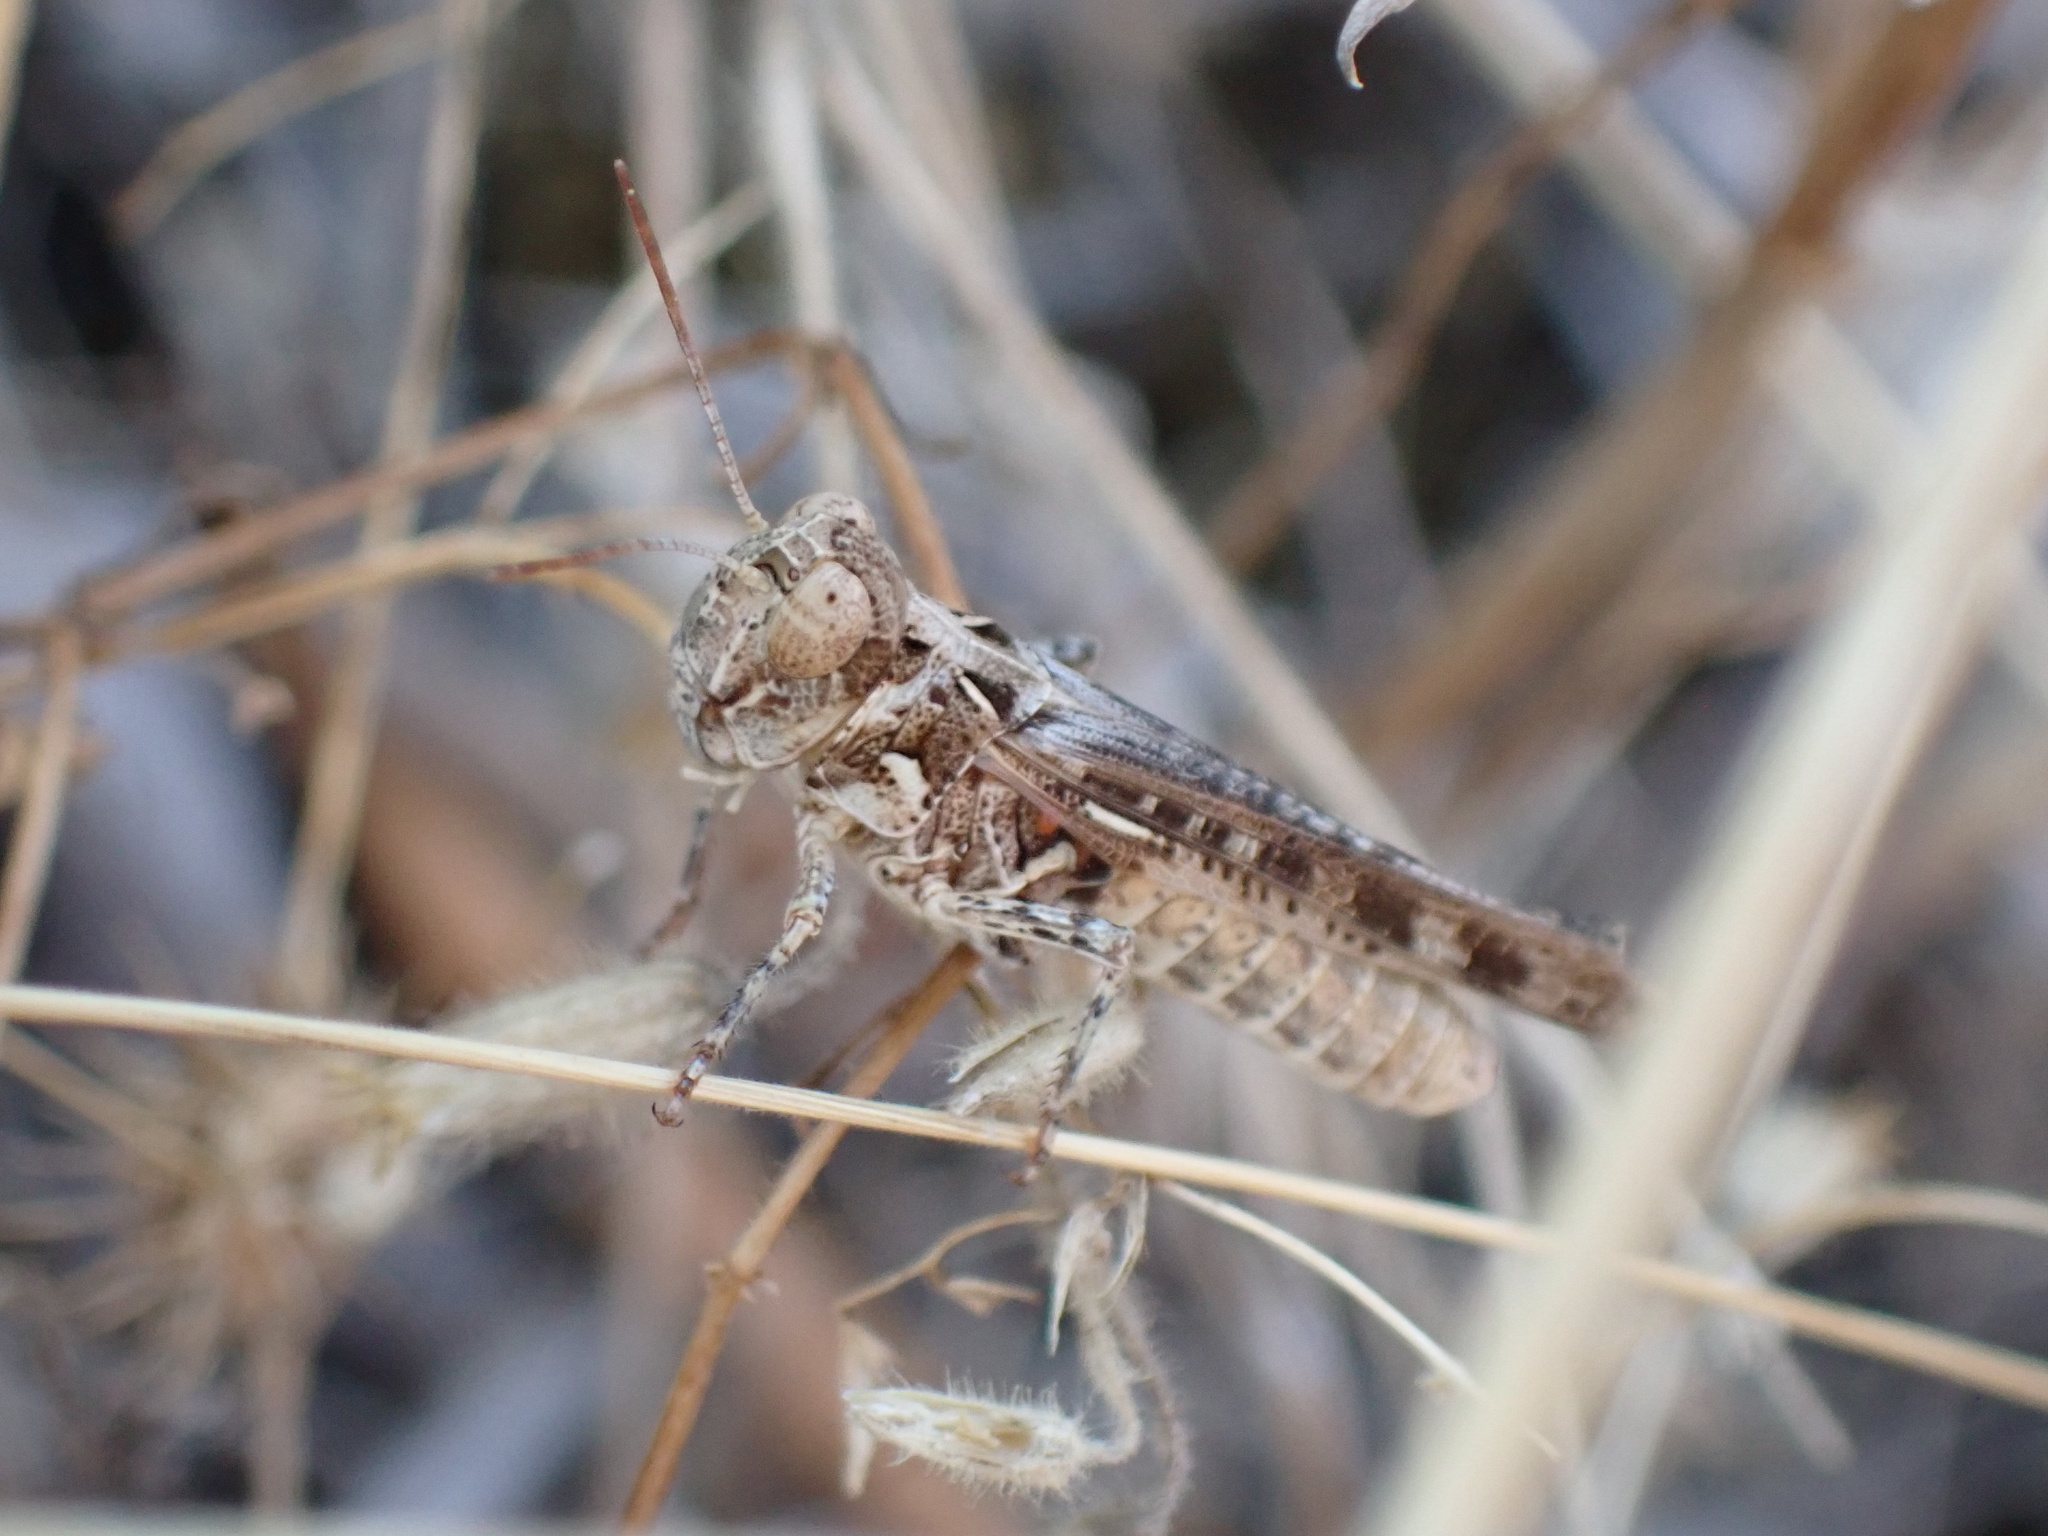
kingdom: Animalia
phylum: Arthropoda
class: Insecta
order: Orthoptera
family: Acrididae
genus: Dociostaurus
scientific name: Dociostaurus genei
